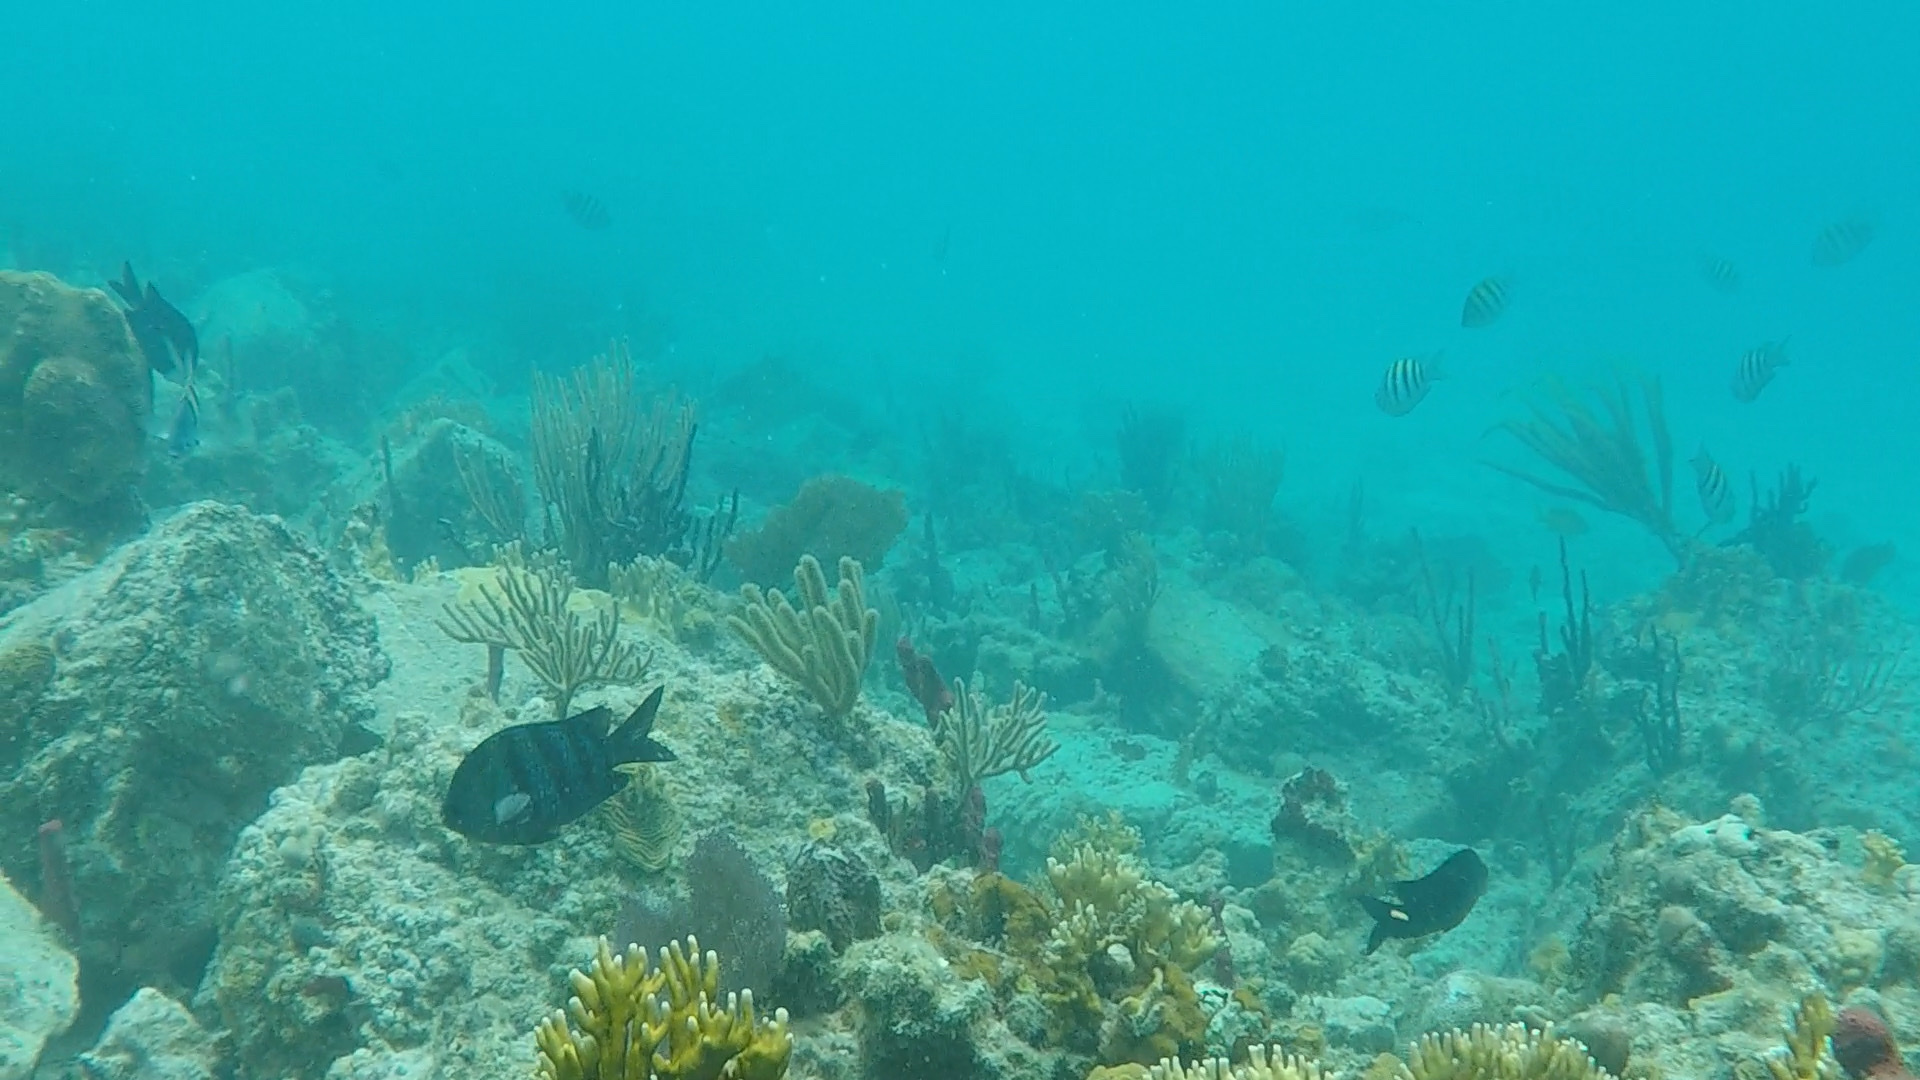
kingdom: Animalia
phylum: Chordata
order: Perciformes
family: Pomacentridae
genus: Abudefduf
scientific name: Abudefduf saxatilis
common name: Sergeant major
